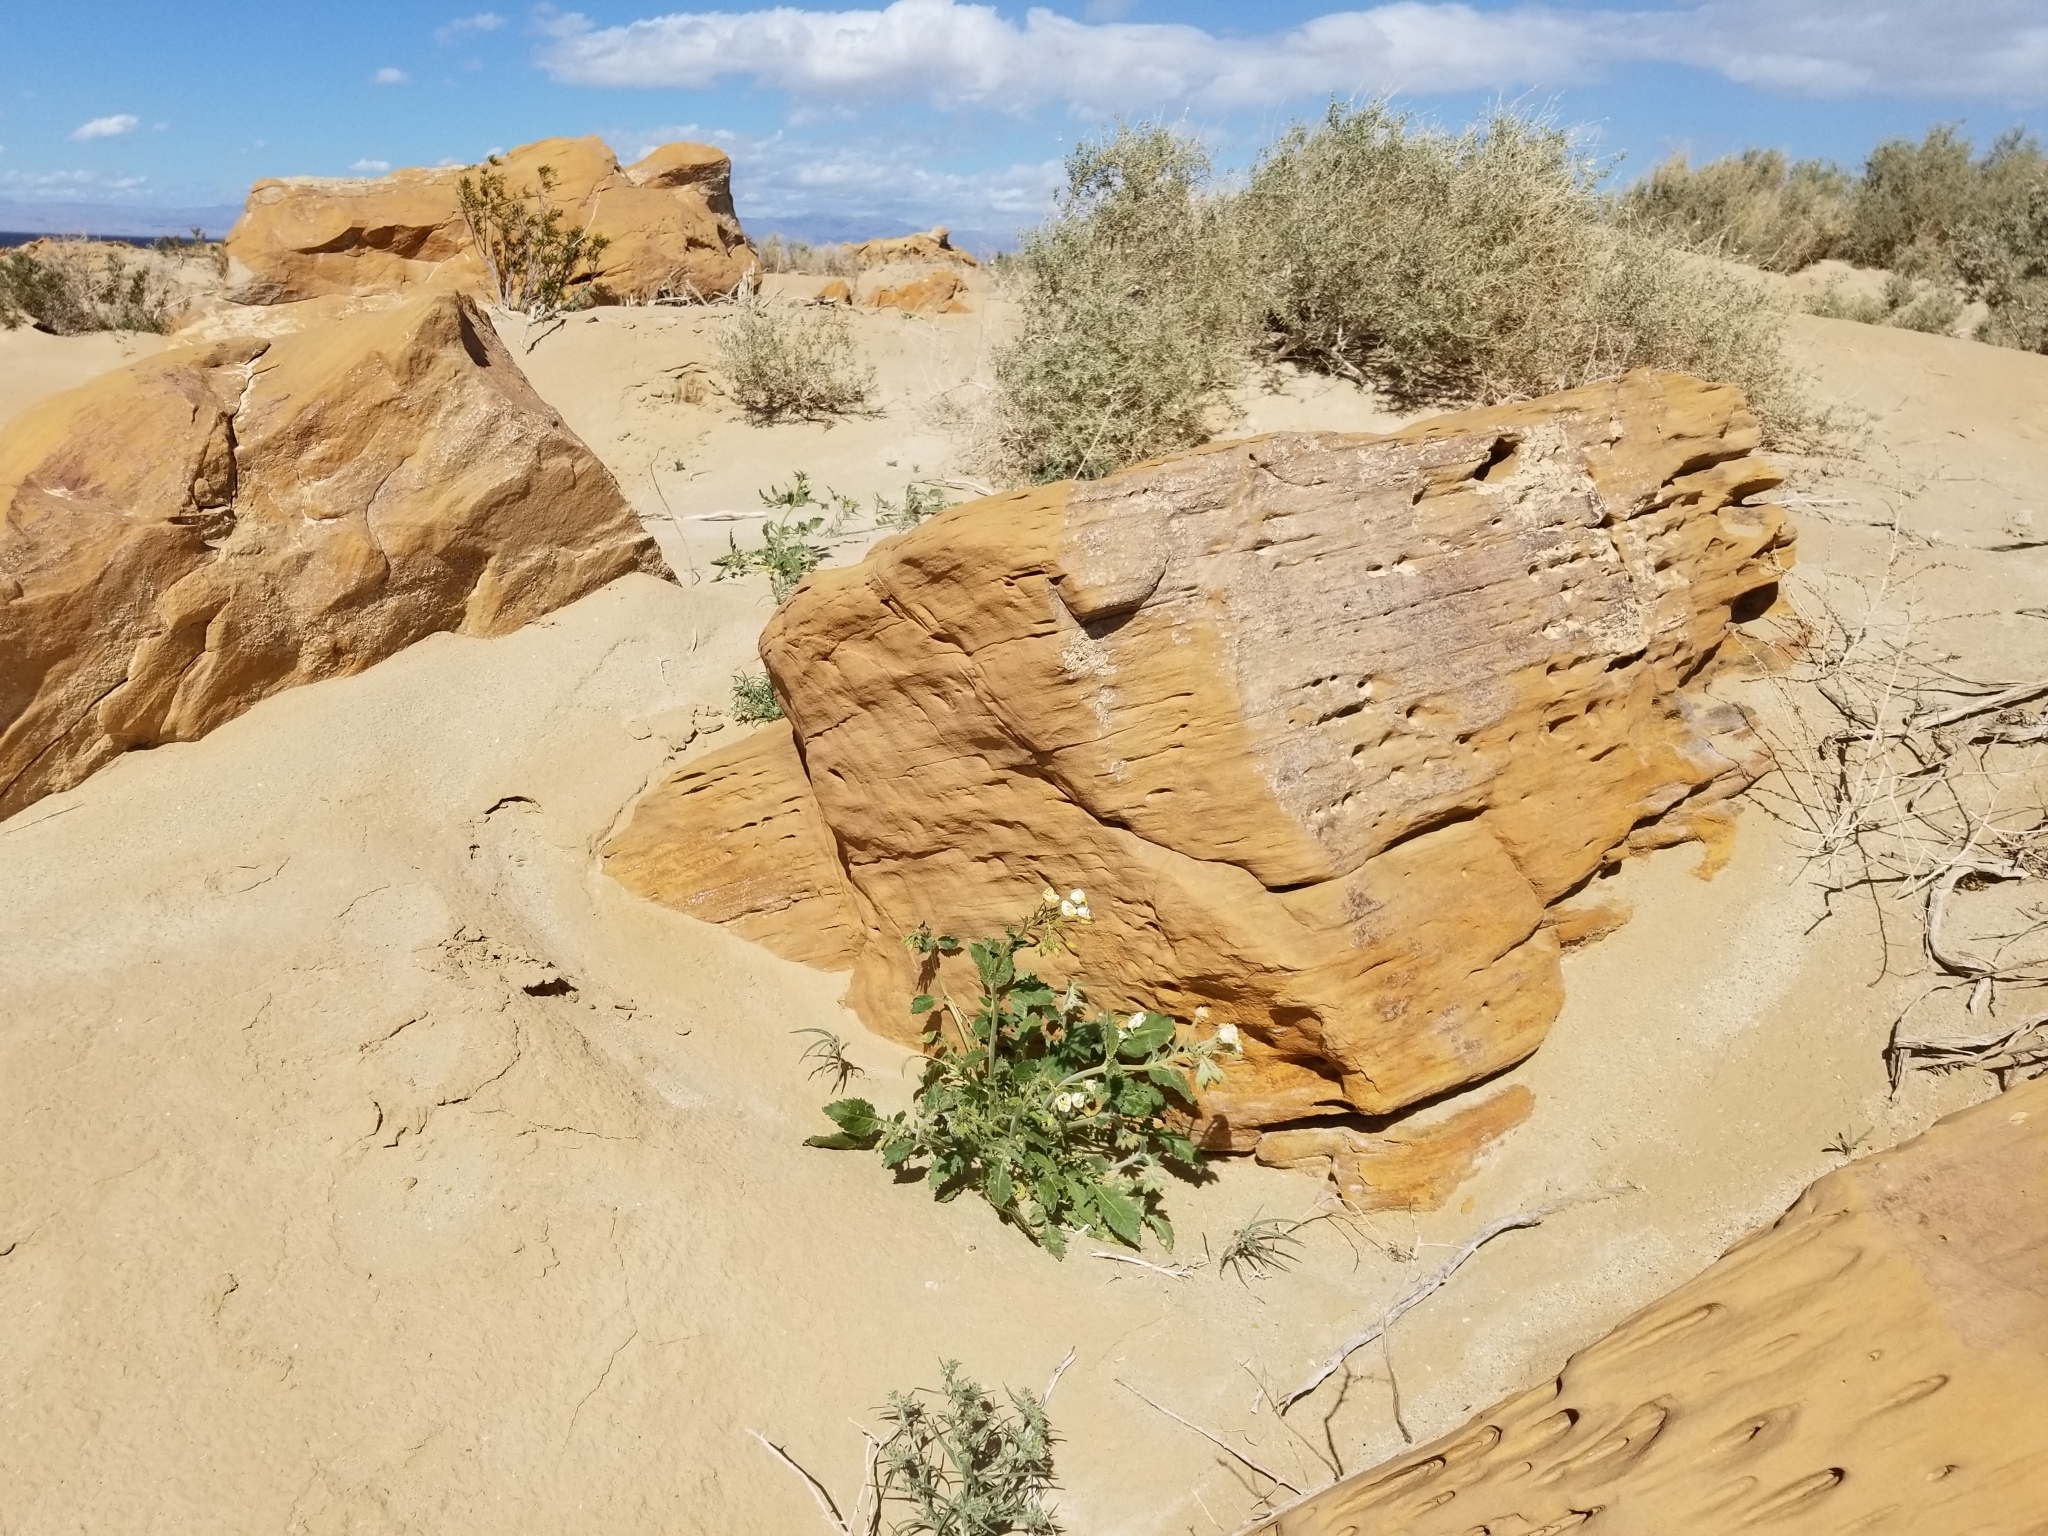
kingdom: Plantae
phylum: Tracheophyta
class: Magnoliopsida
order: Myrtales
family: Onagraceae
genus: Chylismia
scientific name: Chylismia claviformis
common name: Browneyes
